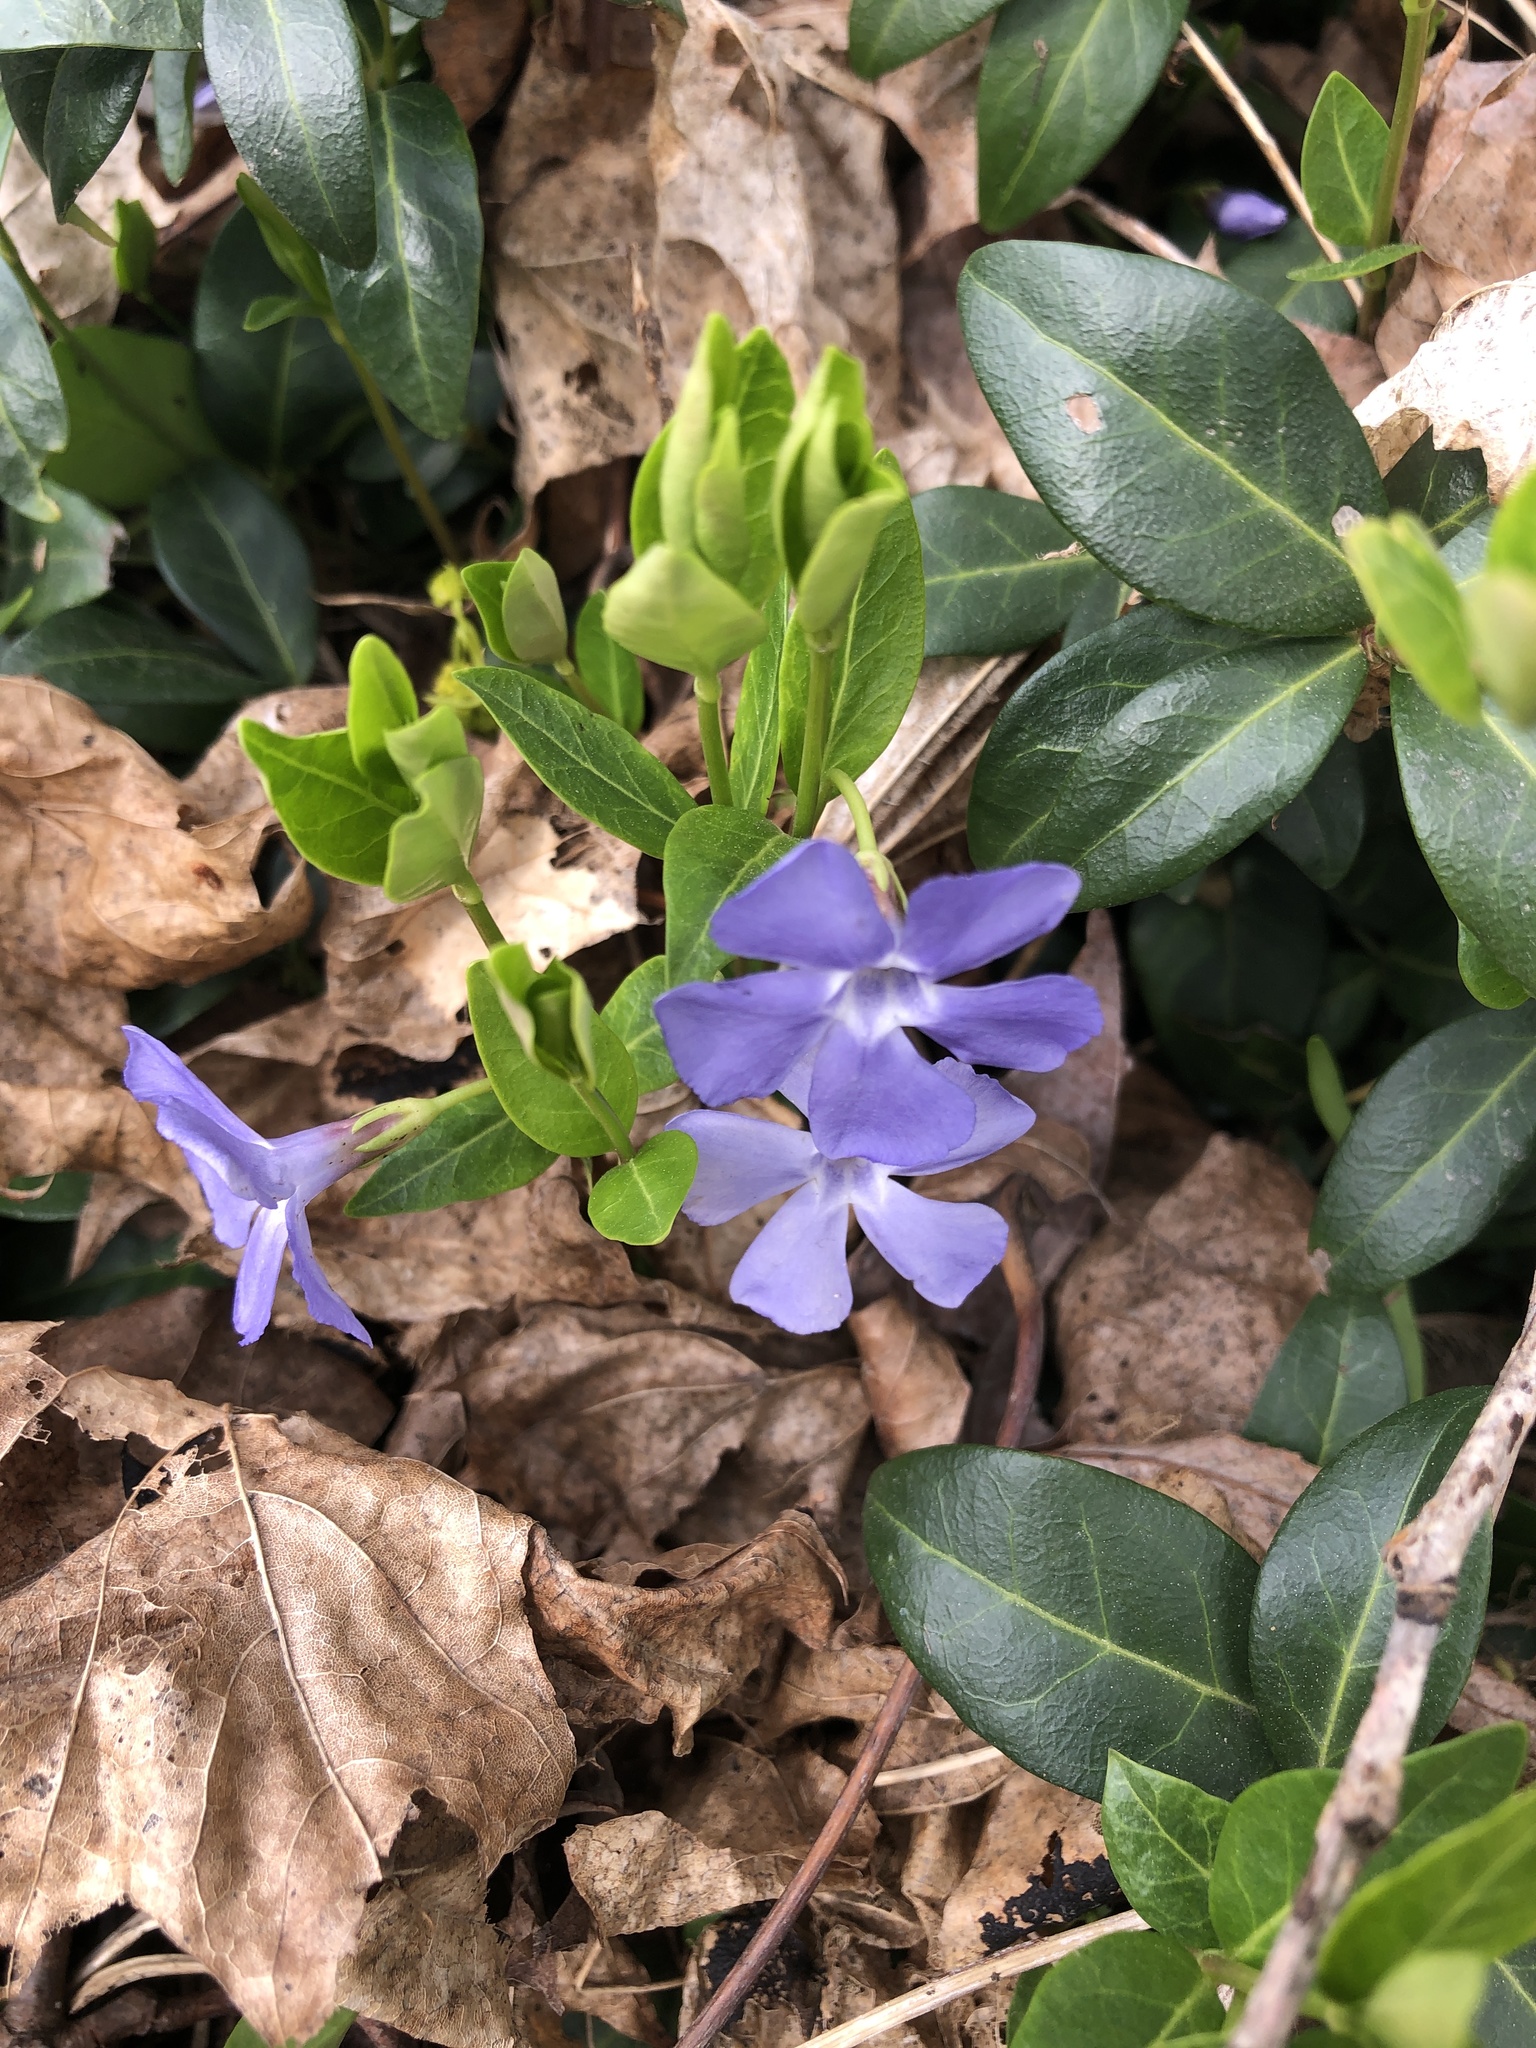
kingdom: Plantae
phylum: Tracheophyta
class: Magnoliopsida
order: Gentianales
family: Apocynaceae
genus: Vinca
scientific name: Vinca minor
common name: Lesser periwinkle
